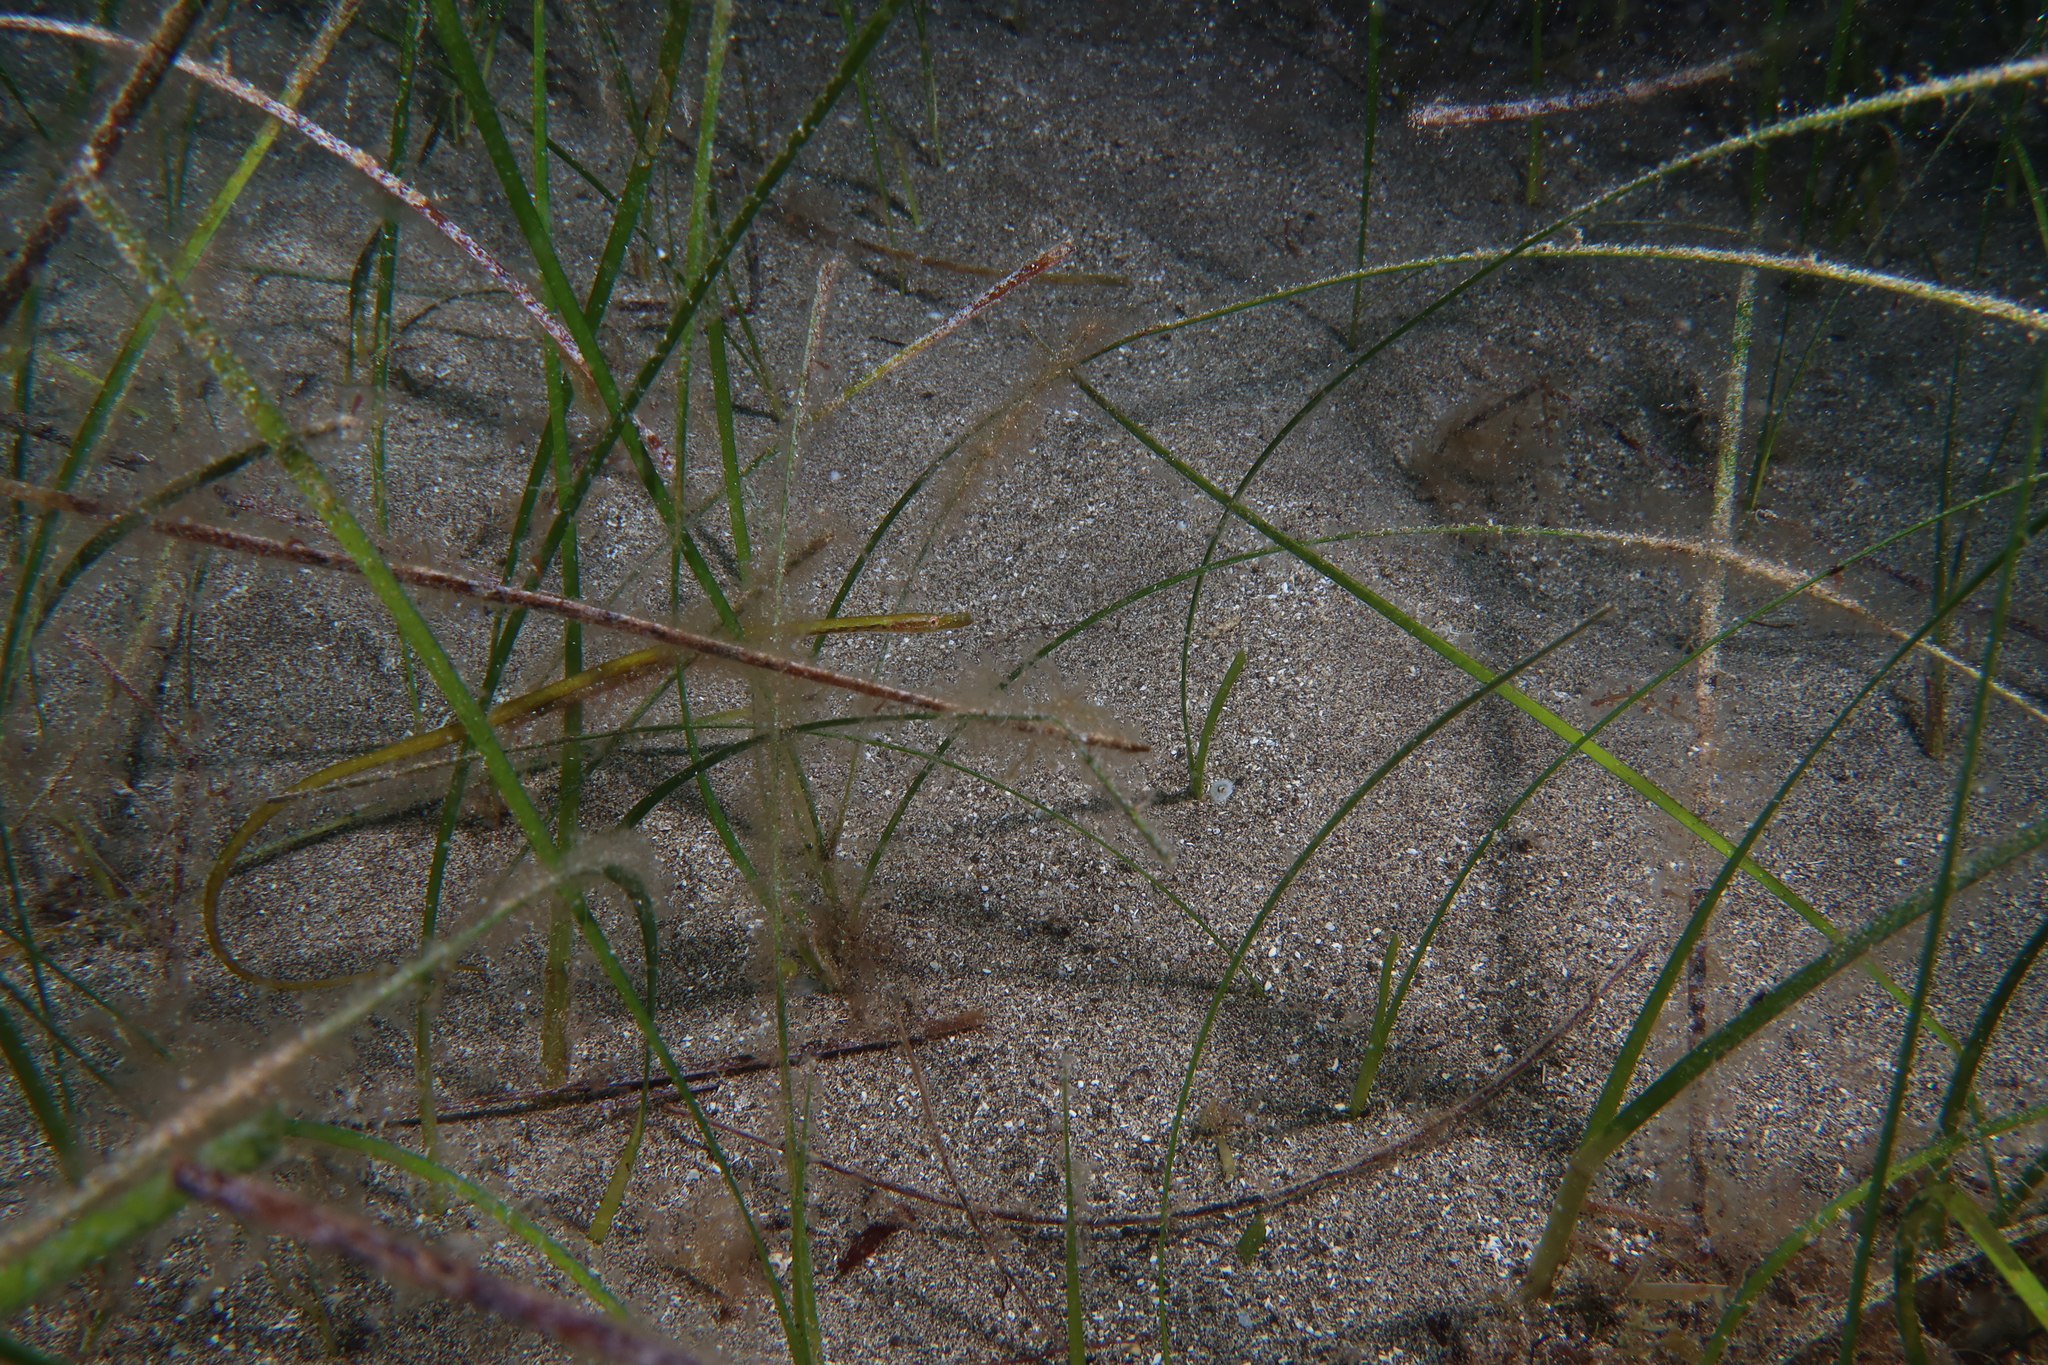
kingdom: Animalia
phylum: Chordata
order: Syngnathiformes
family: Syngnathidae
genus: Nerophis
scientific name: Nerophis ophidion
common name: Straight-nosed pipefish
